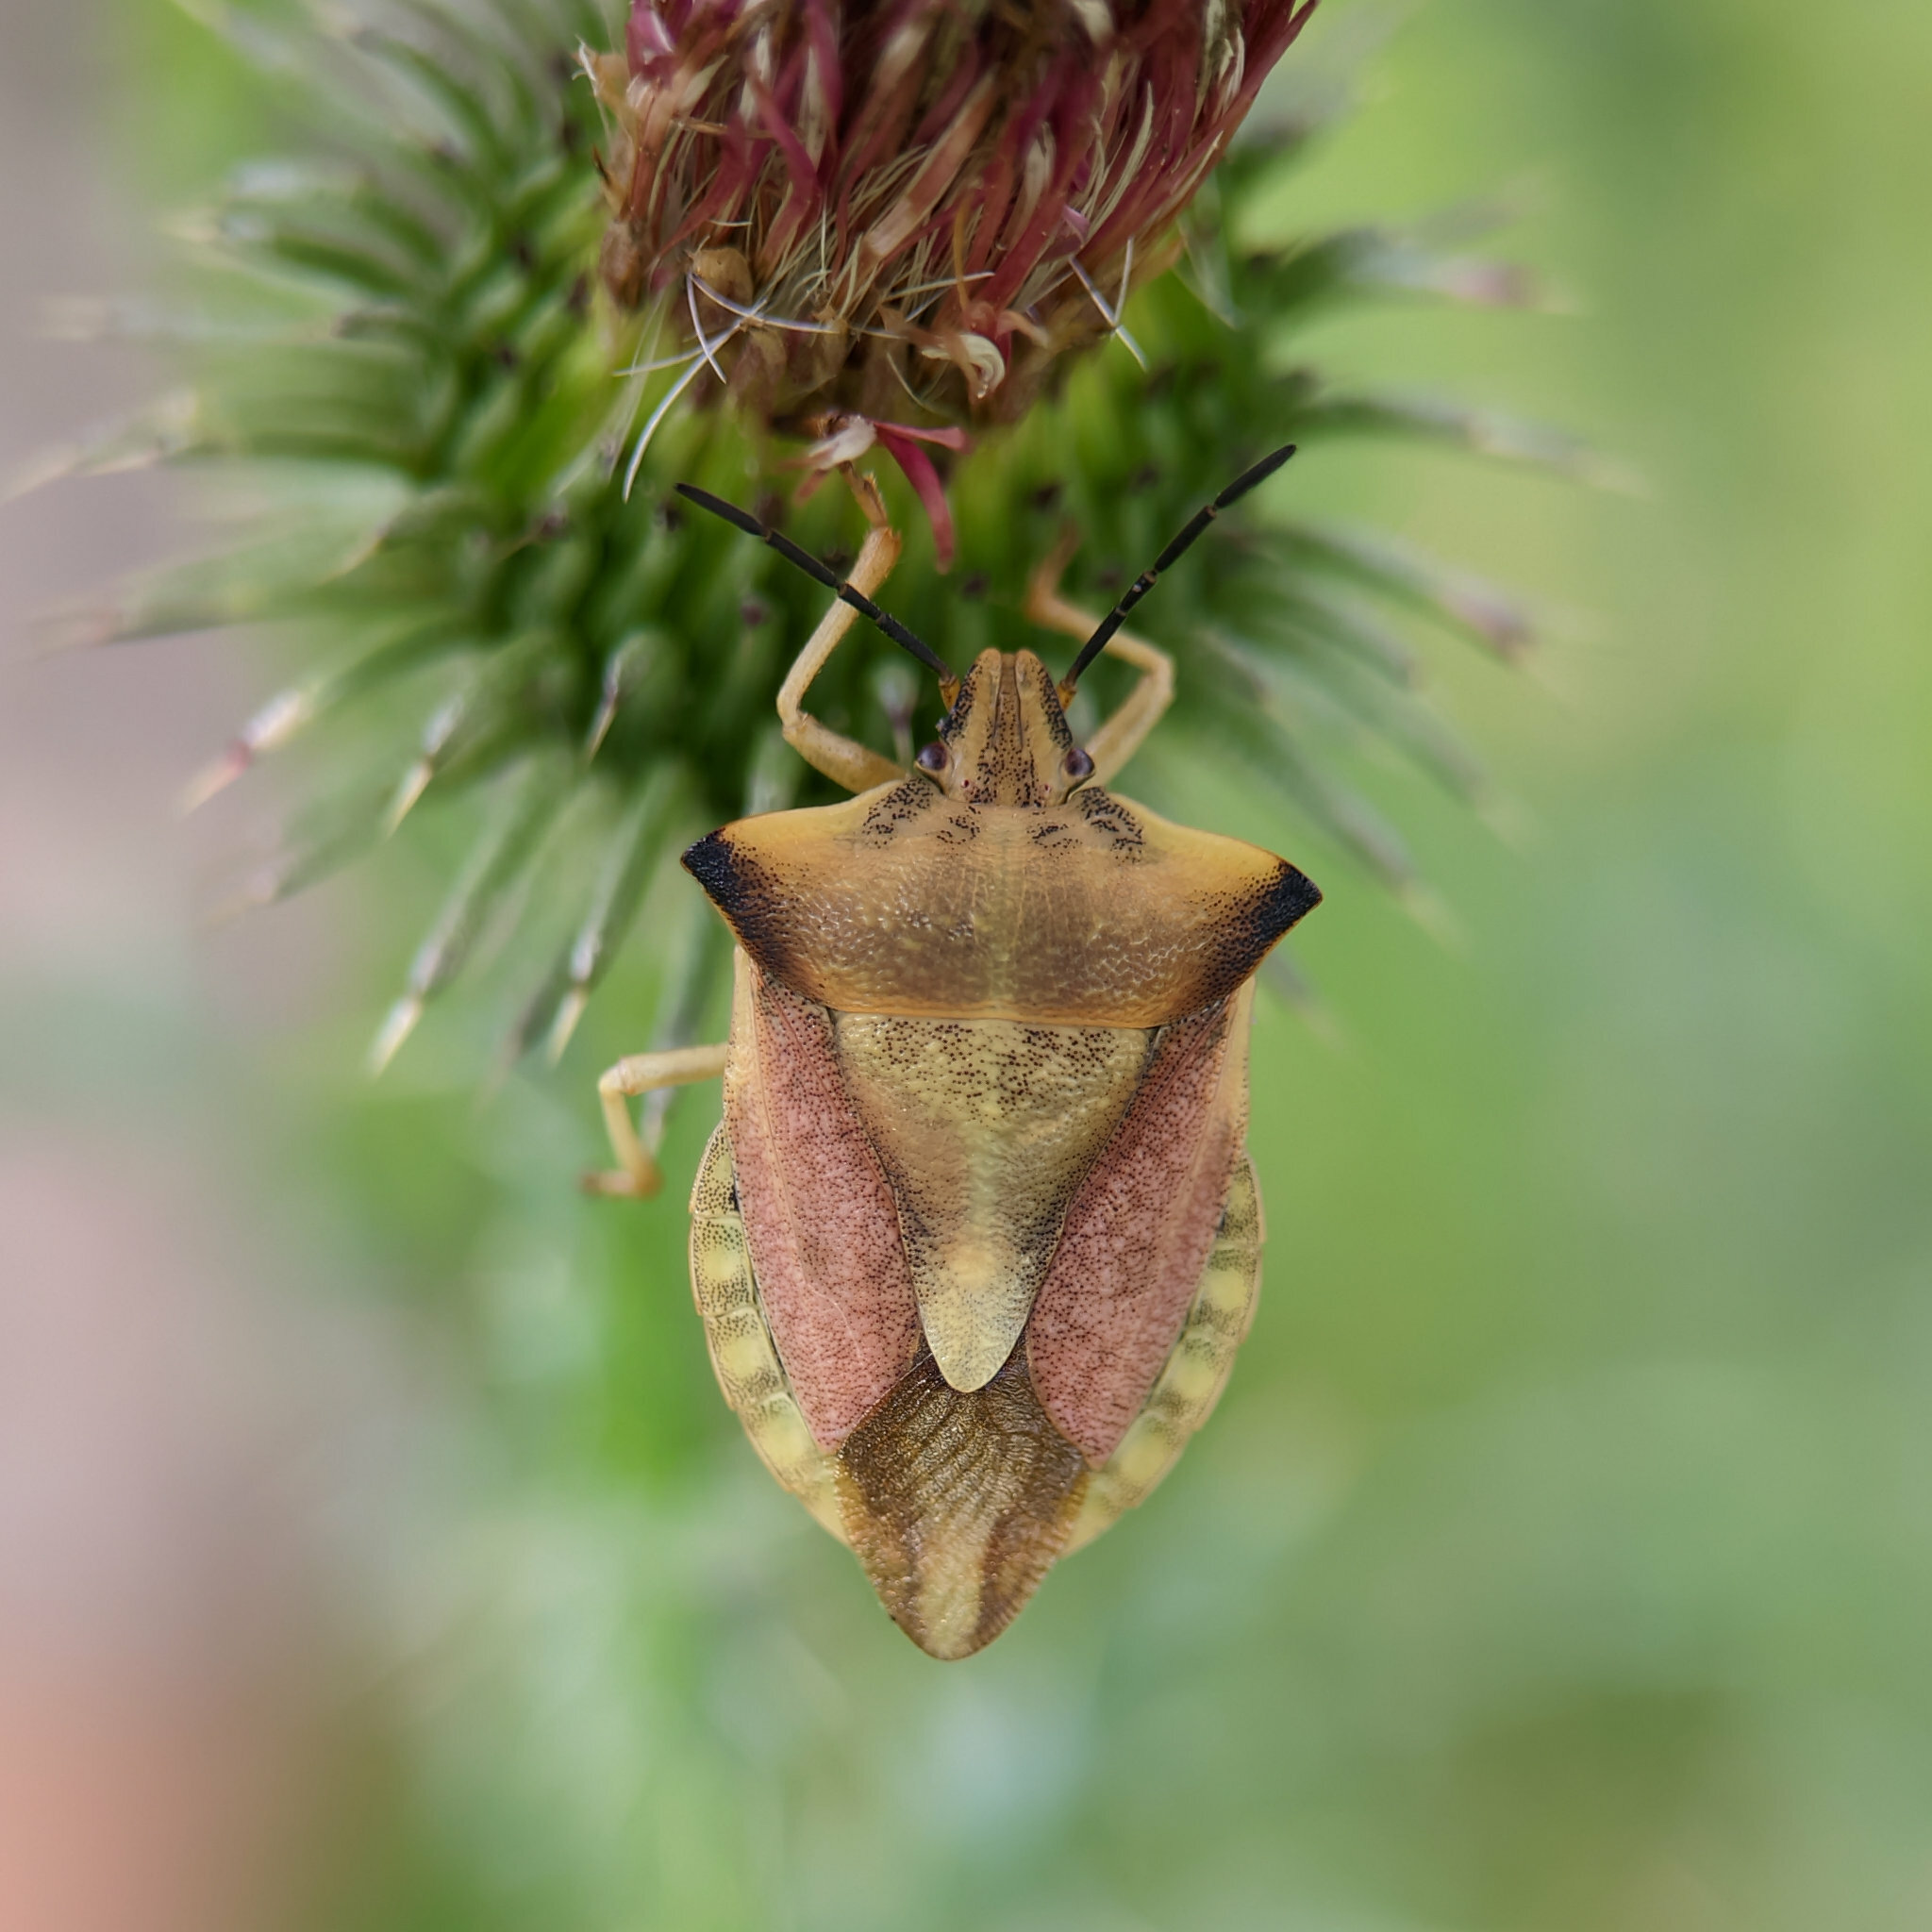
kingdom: Animalia
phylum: Arthropoda
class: Insecta
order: Hemiptera
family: Pentatomidae
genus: Carpocoris
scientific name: Carpocoris fuscispinus
